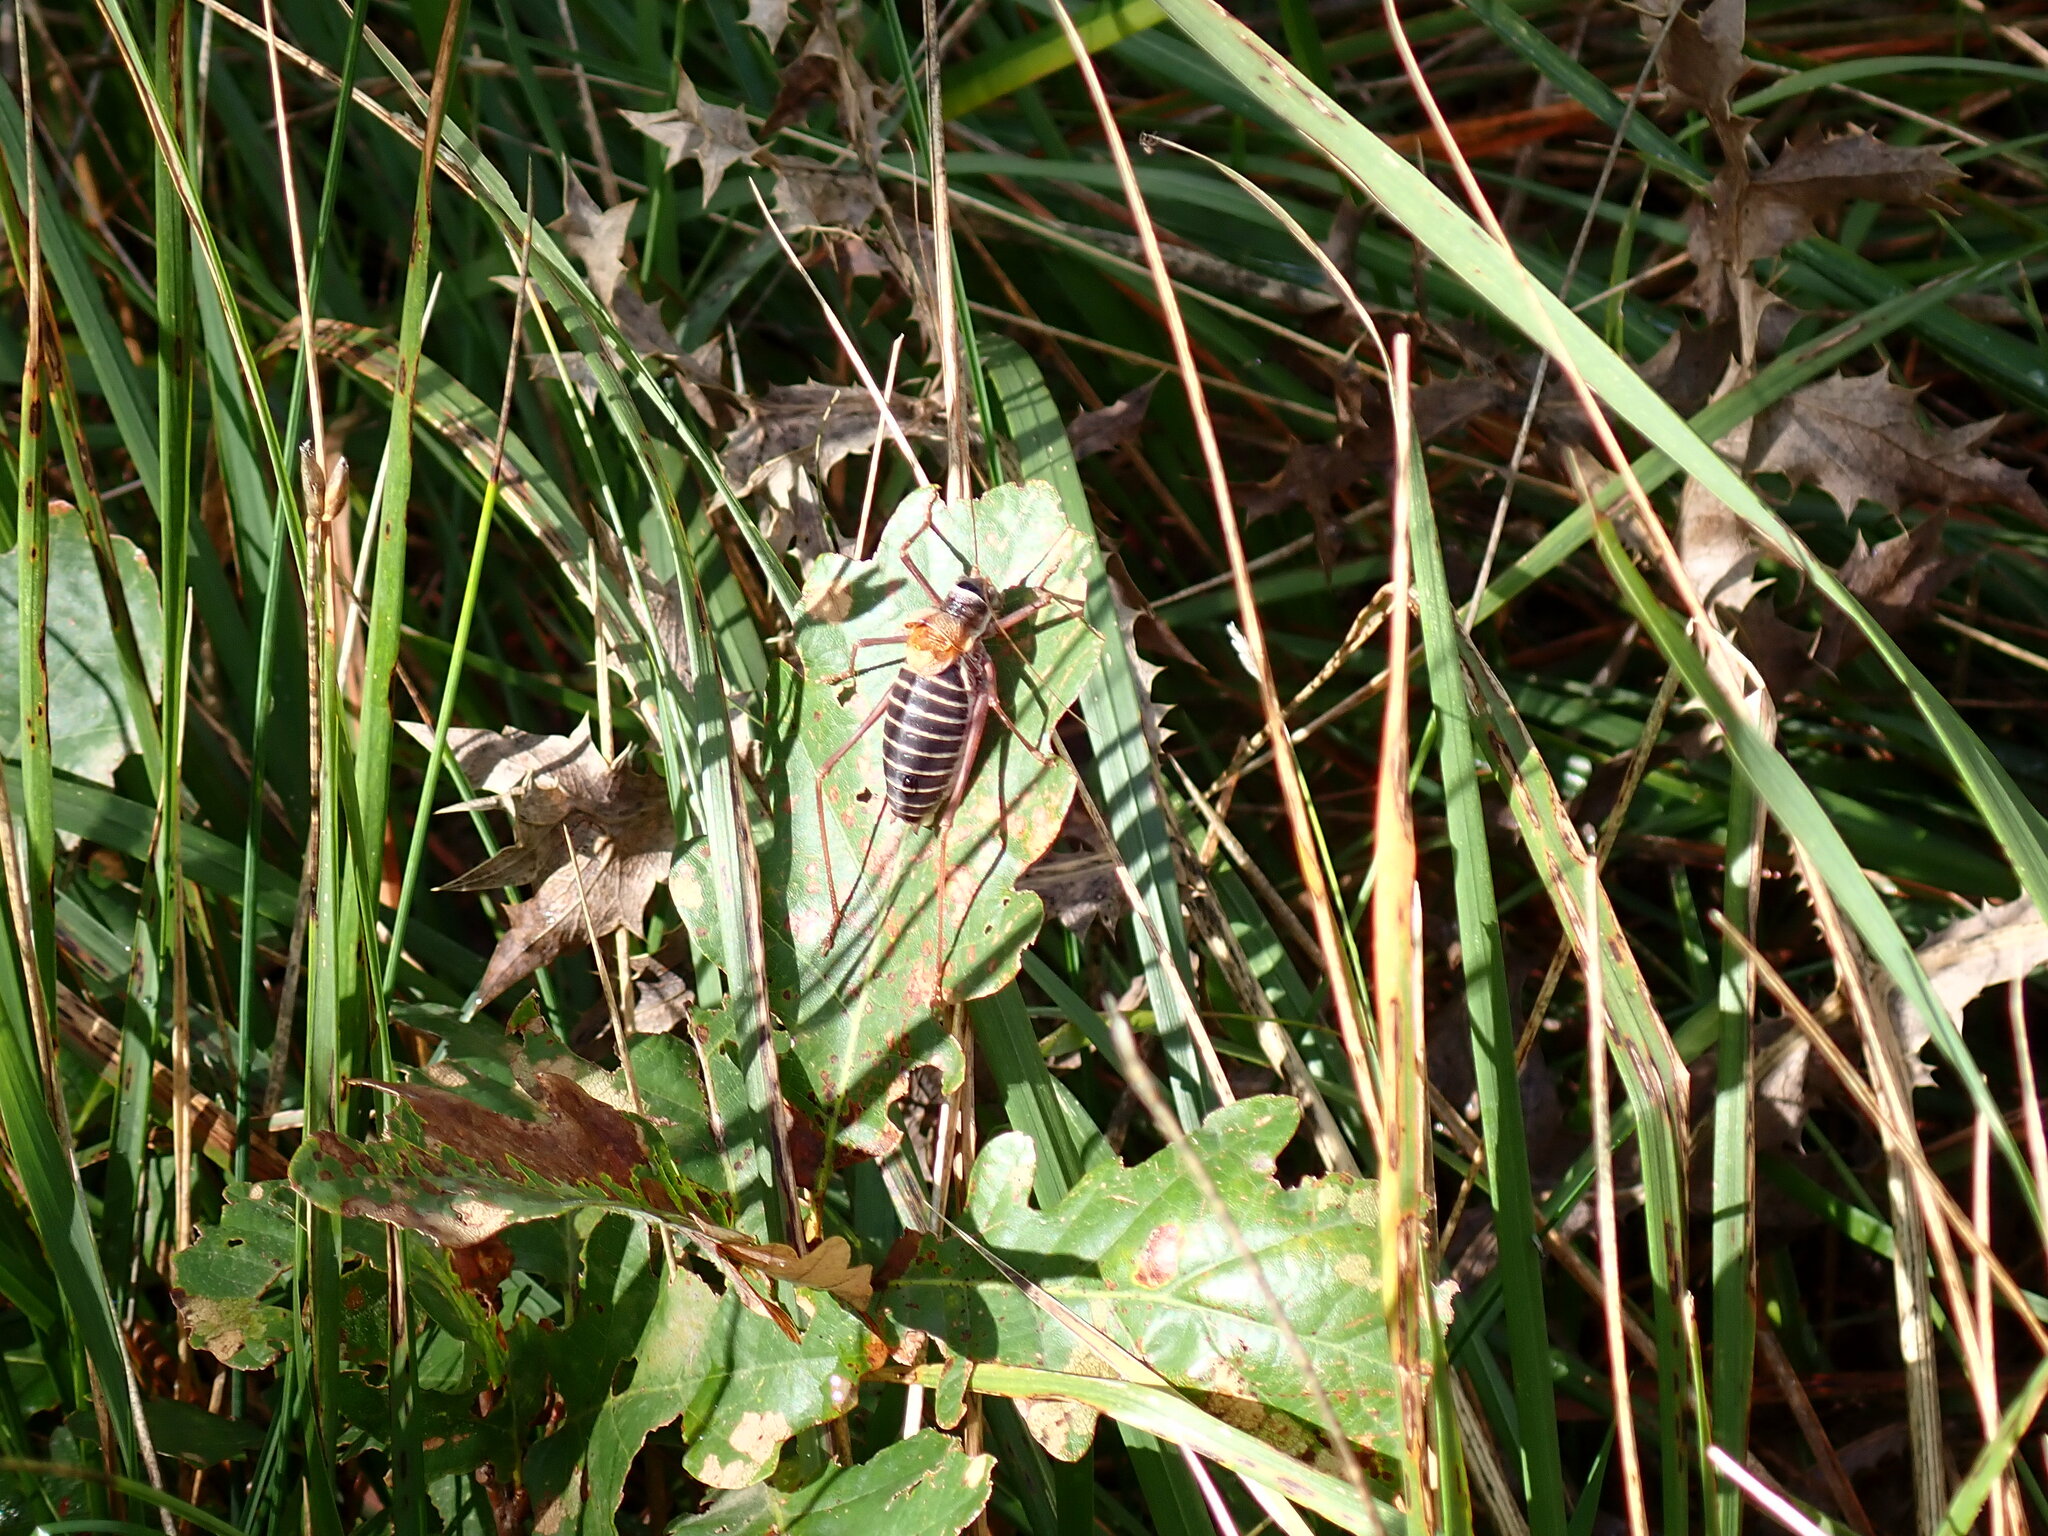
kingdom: Animalia
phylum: Arthropoda
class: Insecta
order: Orthoptera
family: Tettigoniidae
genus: Ephippiger
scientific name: Ephippiger diurnus
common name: Western saddle bush-cricket
